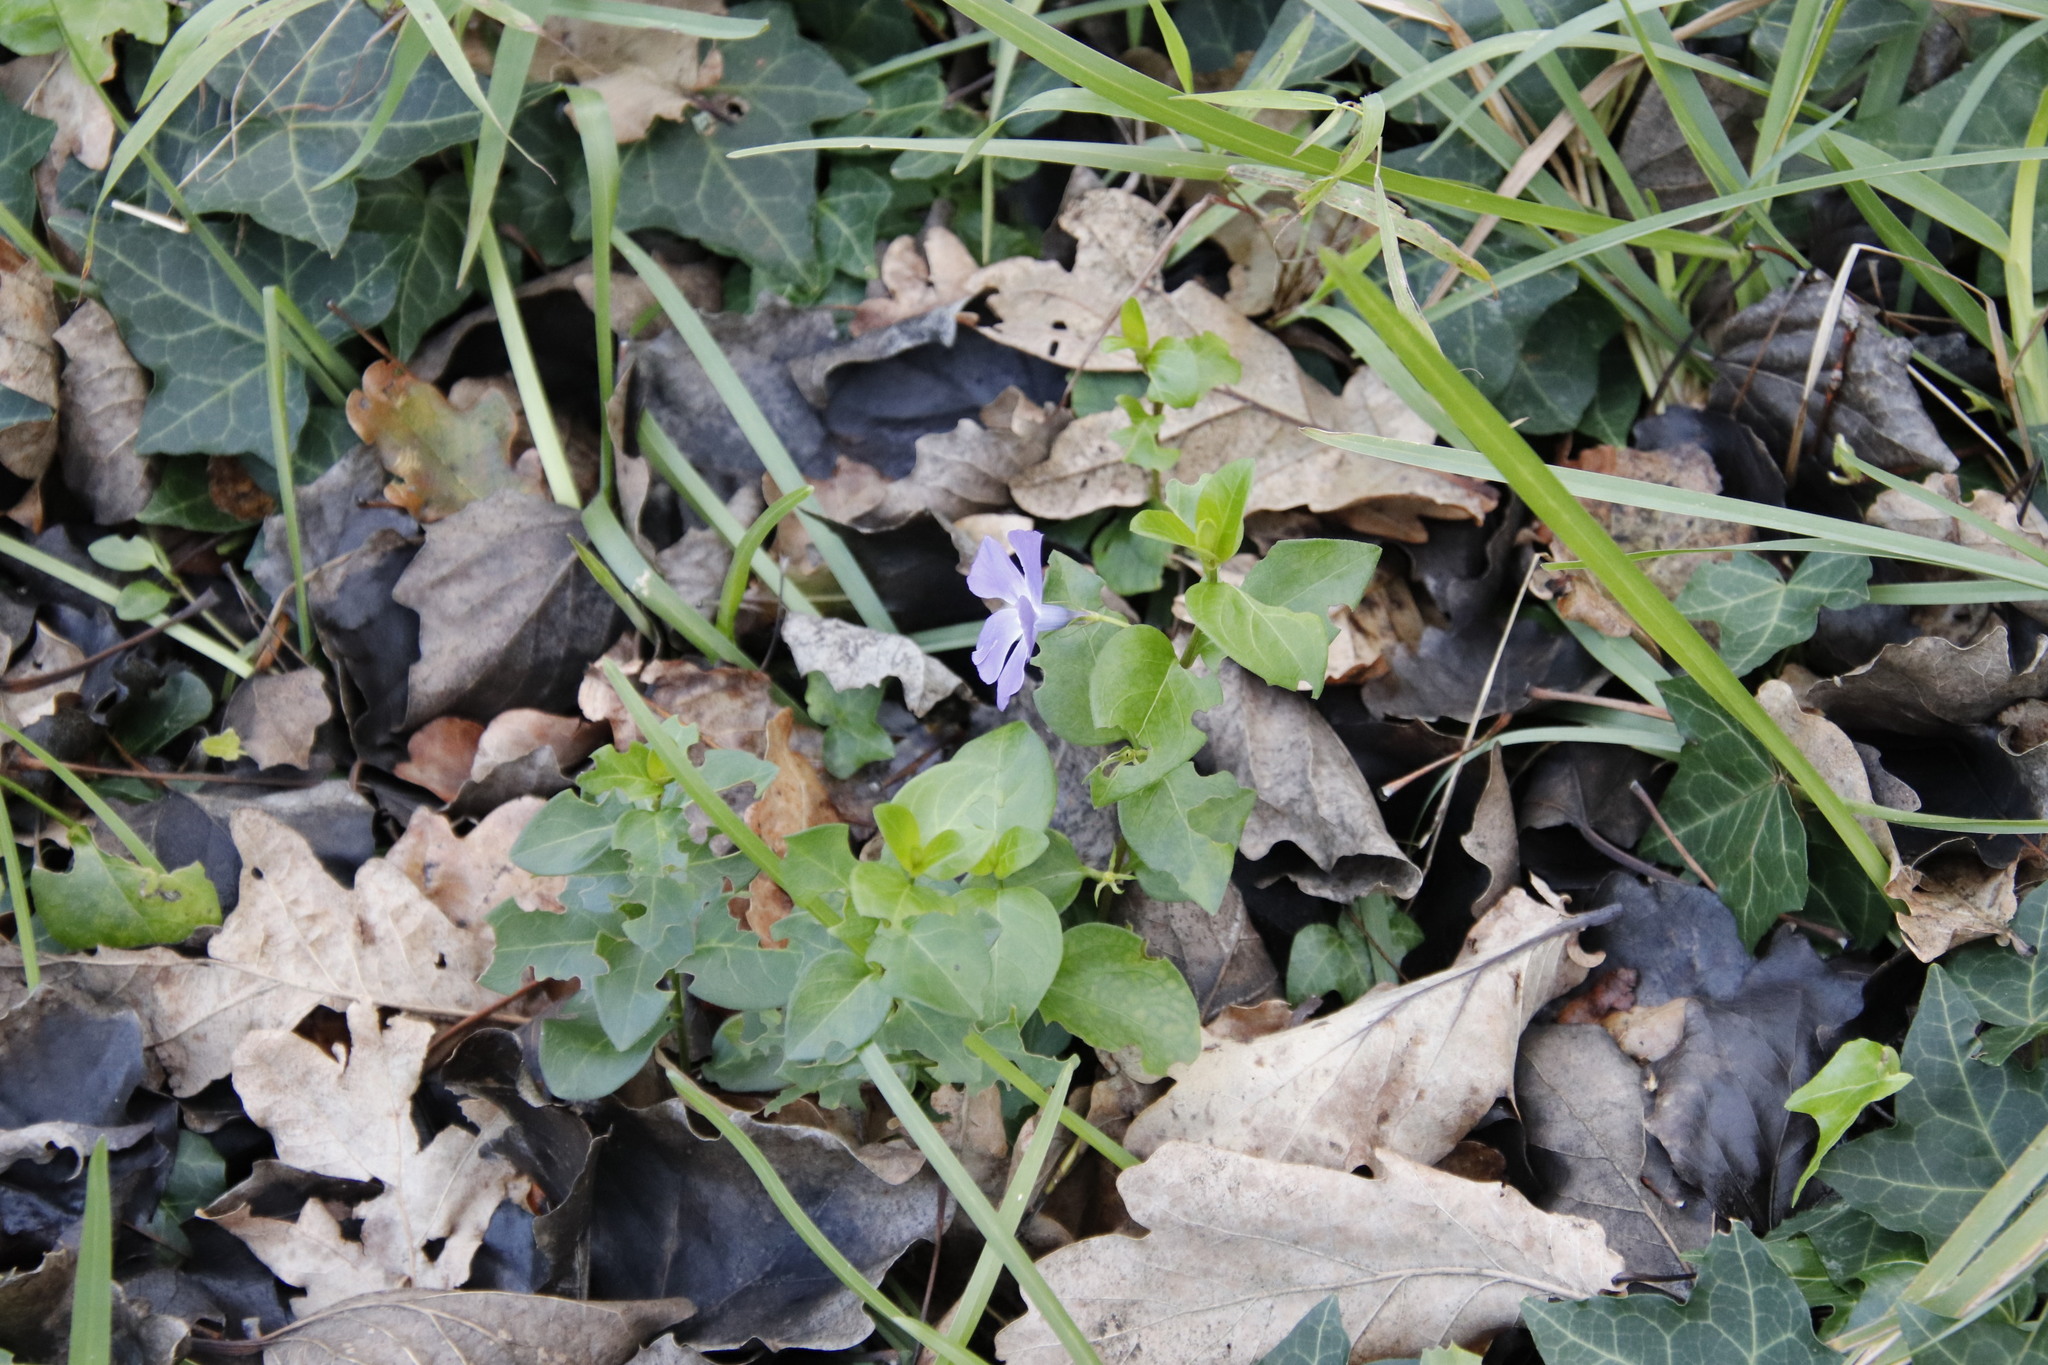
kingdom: Plantae
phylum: Tracheophyta
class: Magnoliopsida
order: Gentianales
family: Apocynaceae
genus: Vinca
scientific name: Vinca major
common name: Greater periwinkle
